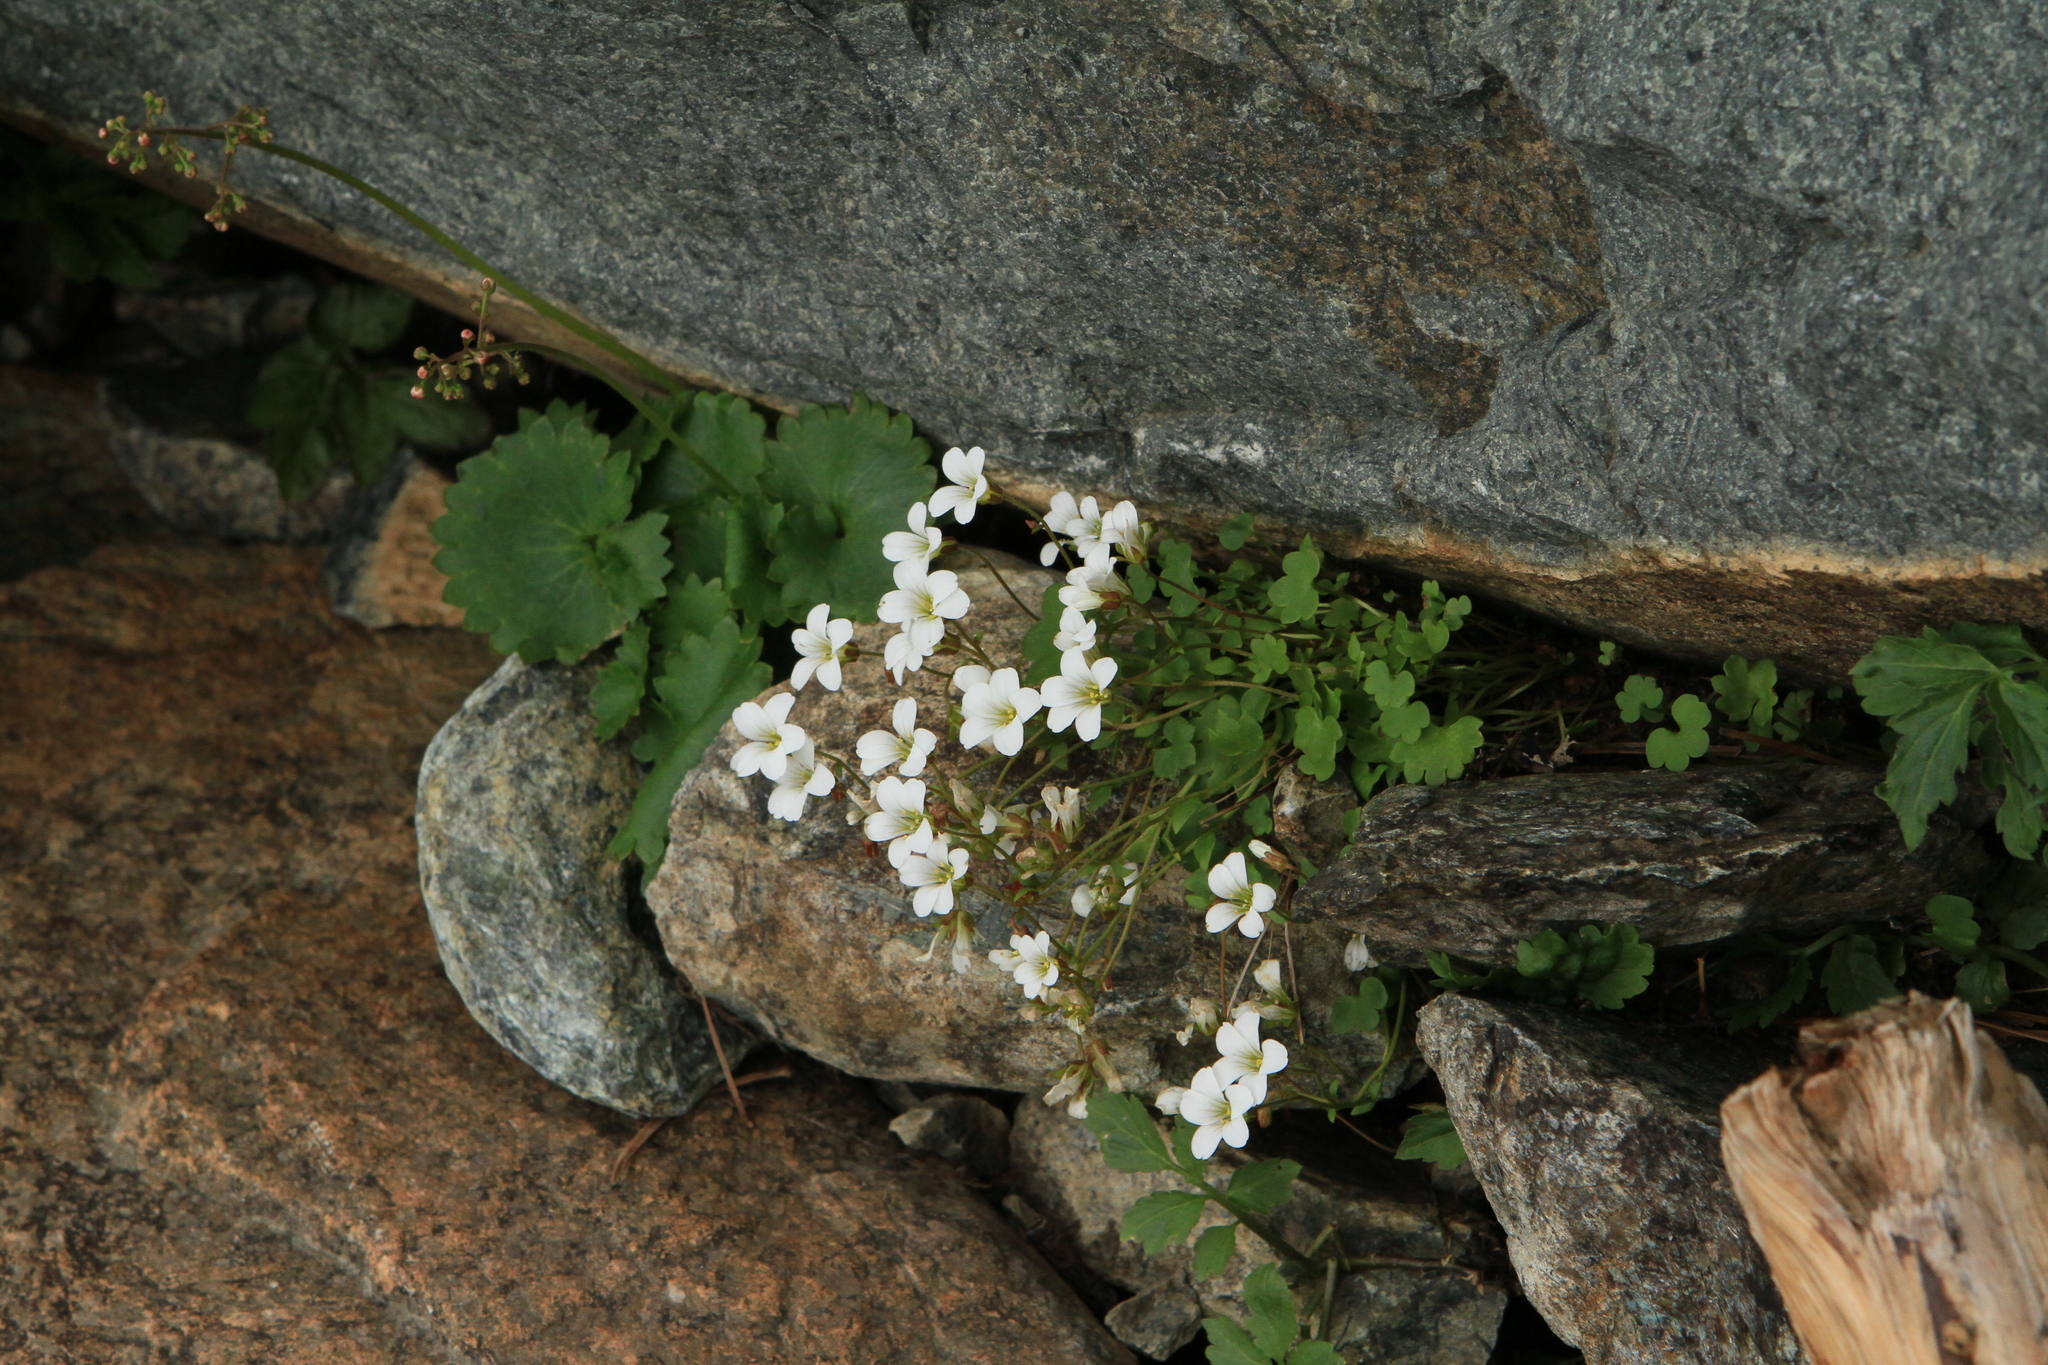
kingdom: Plantae
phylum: Tracheophyta
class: Magnoliopsida
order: Saxifragales
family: Saxifragaceae
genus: Saxifraga
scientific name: Saxifraga sibirica
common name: Siberian saxifrage
